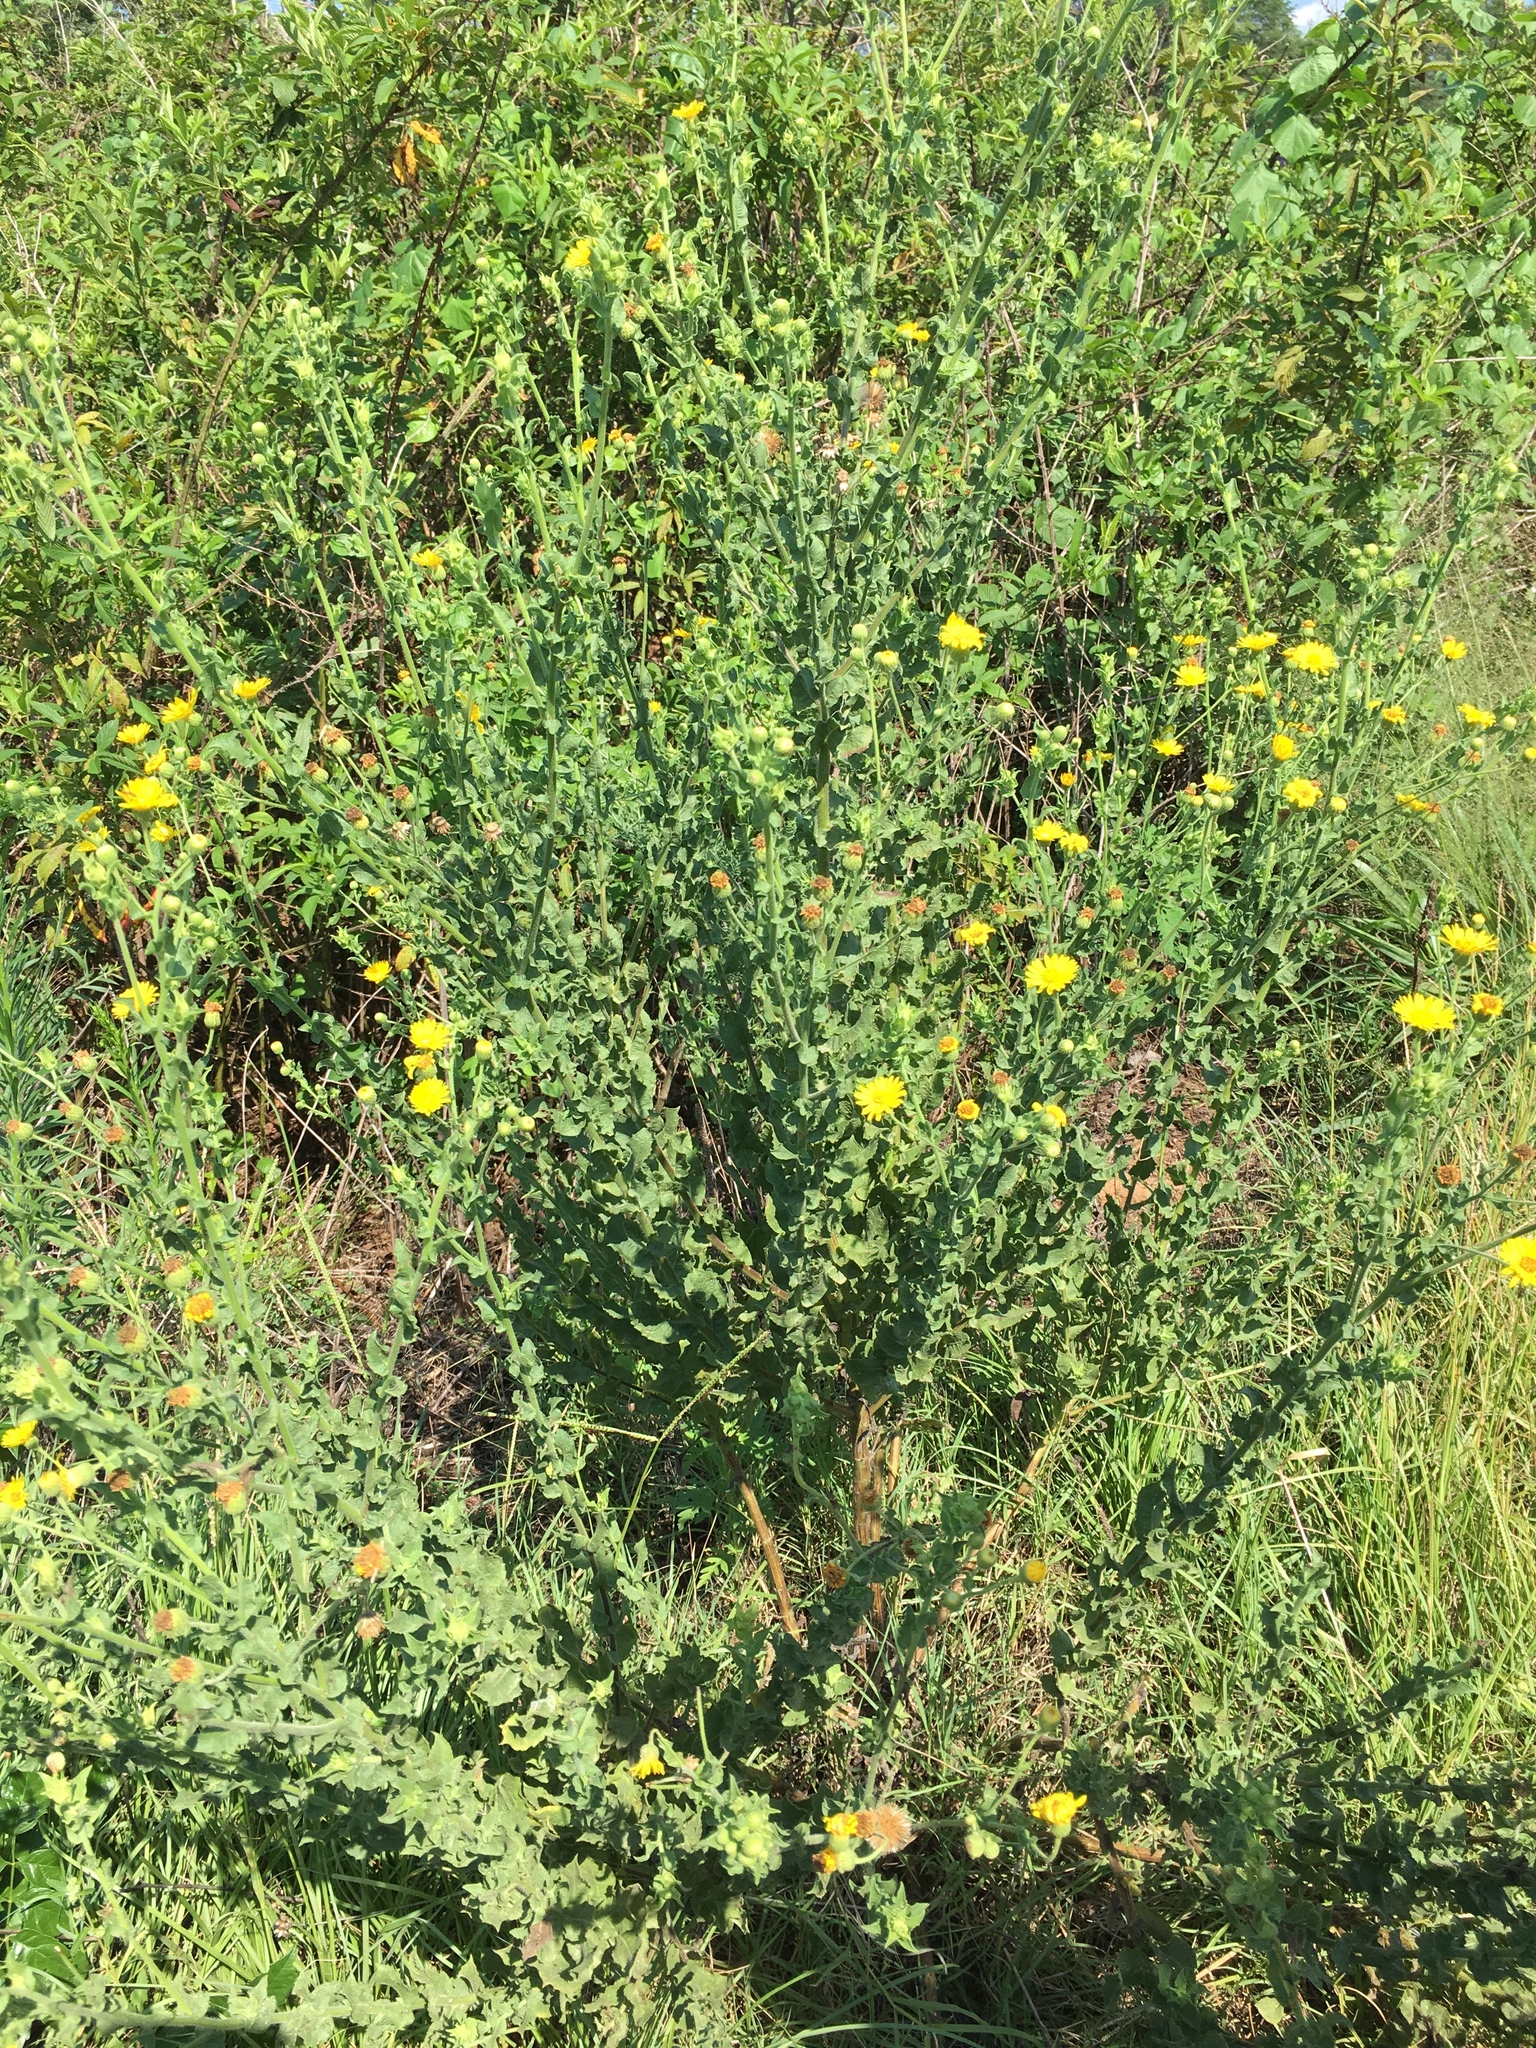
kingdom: Plantae
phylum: Tracheophyta
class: Magnoliopsida
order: Asterales
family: Asteraceae
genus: Heterotheca
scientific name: Heterotheca subaxillaris
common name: Camphorweed
